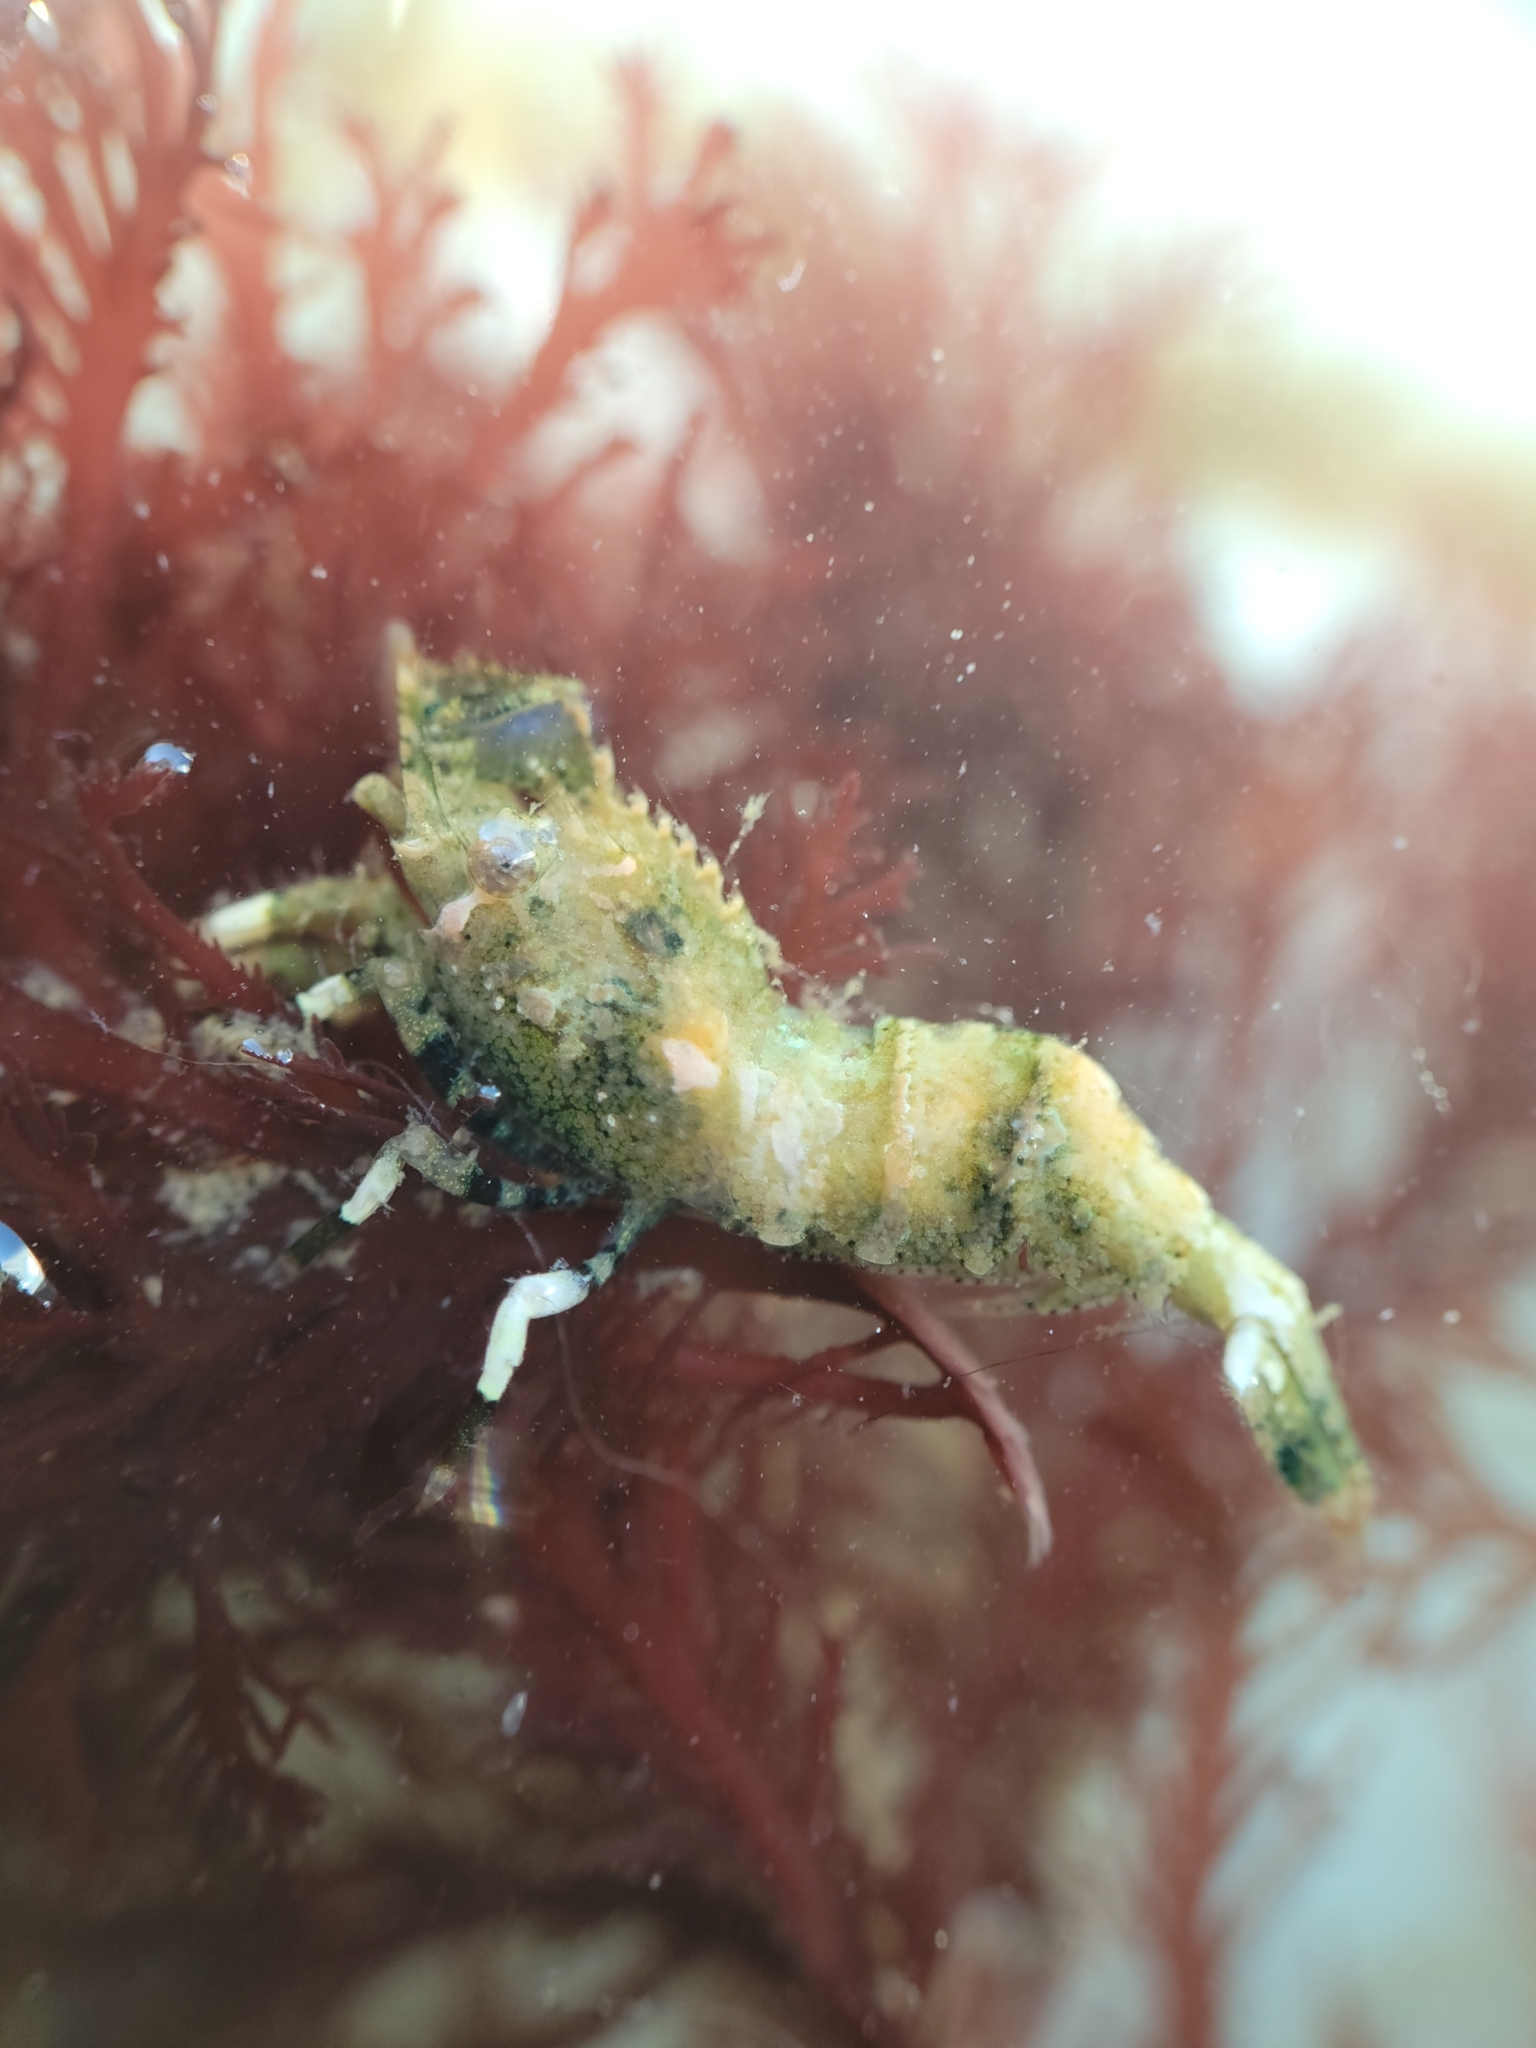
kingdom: Animalia
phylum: Arthropoda
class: Malacostraca
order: Decapoda
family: Thoridae
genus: Spirontocaris
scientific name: Spirontocaris prionota
